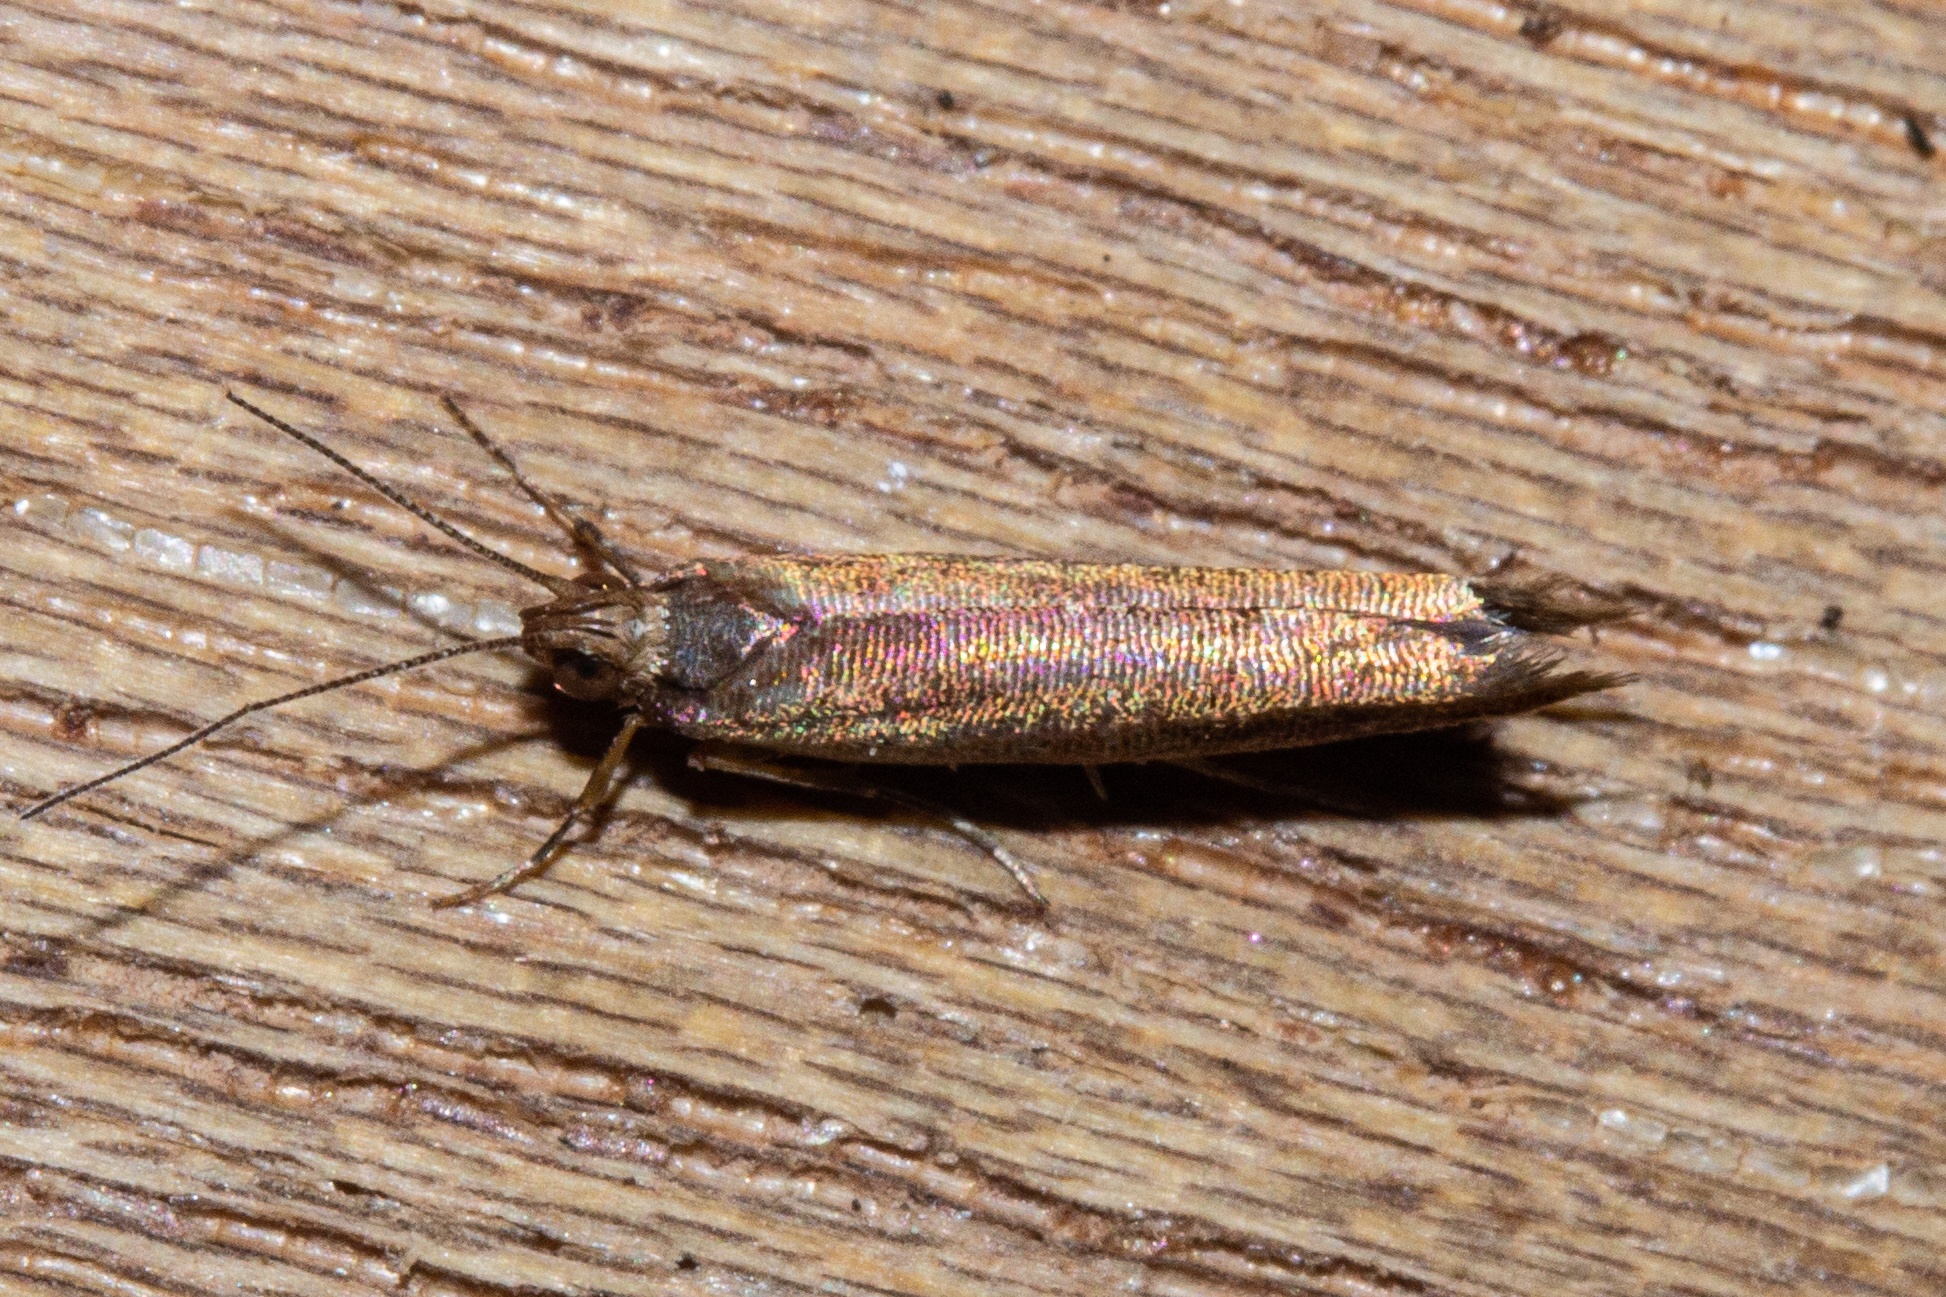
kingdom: Animalia
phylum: Arthropoda
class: Insecta
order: Lepidoptera
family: Glyphipterigidae
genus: Chrysorthenches
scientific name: Chrysorthenches porphyritis
